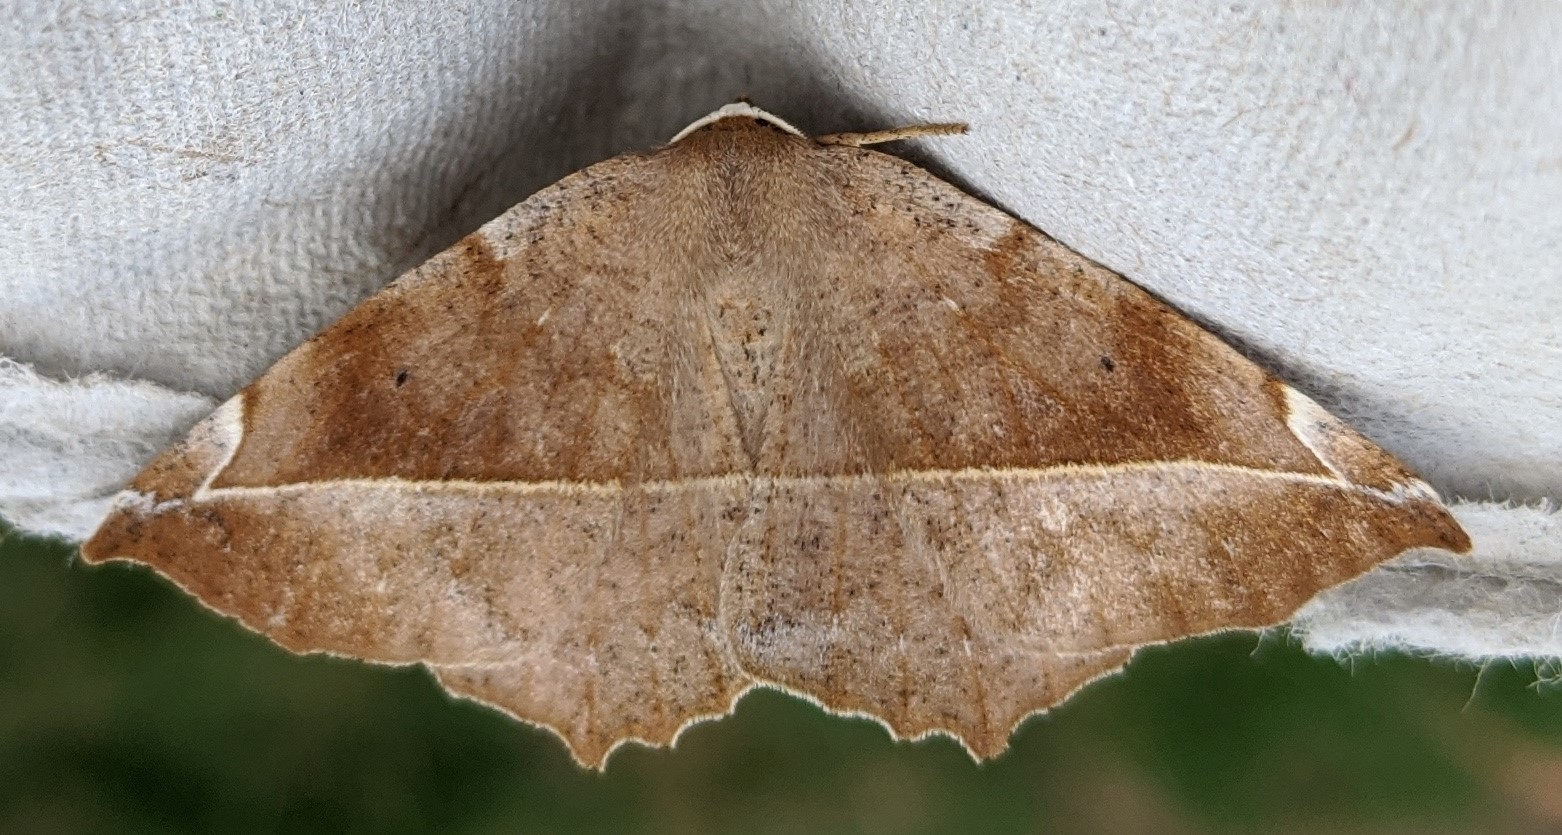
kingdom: Animalia
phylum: Arthropoda
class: Insecta
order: Lepidoptera
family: Geometridae
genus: Eutrapela
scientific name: Eutrapela clemataria
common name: Curved-toothed geometer
